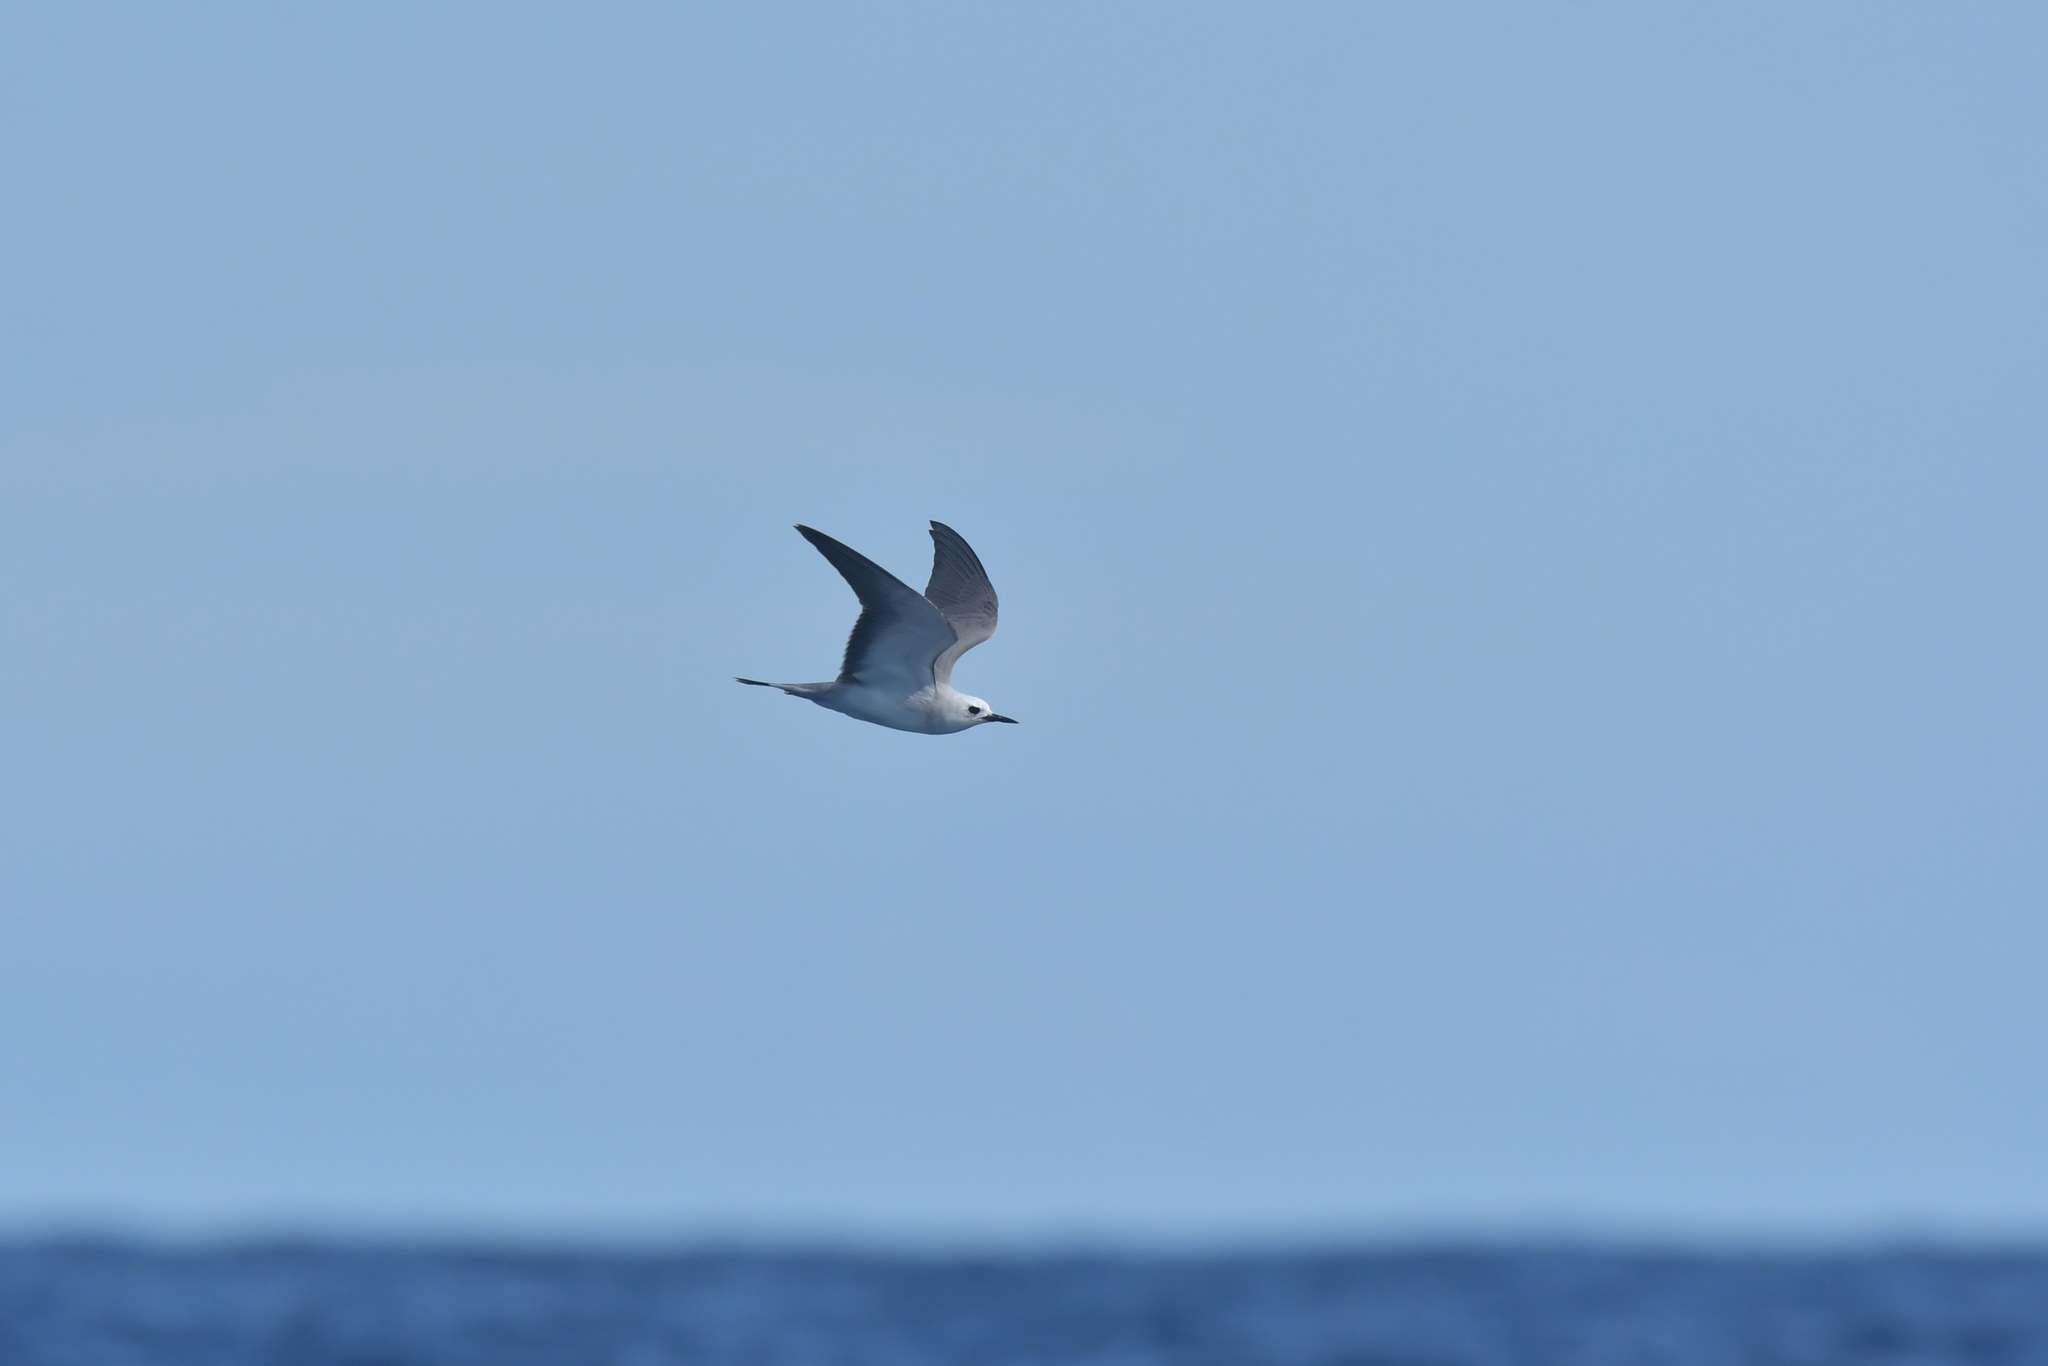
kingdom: Animalia
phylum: Chordata
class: Aves
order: Charadriiformes
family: Laridae
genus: Anous
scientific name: Anous albivitta
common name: Gray noddy
